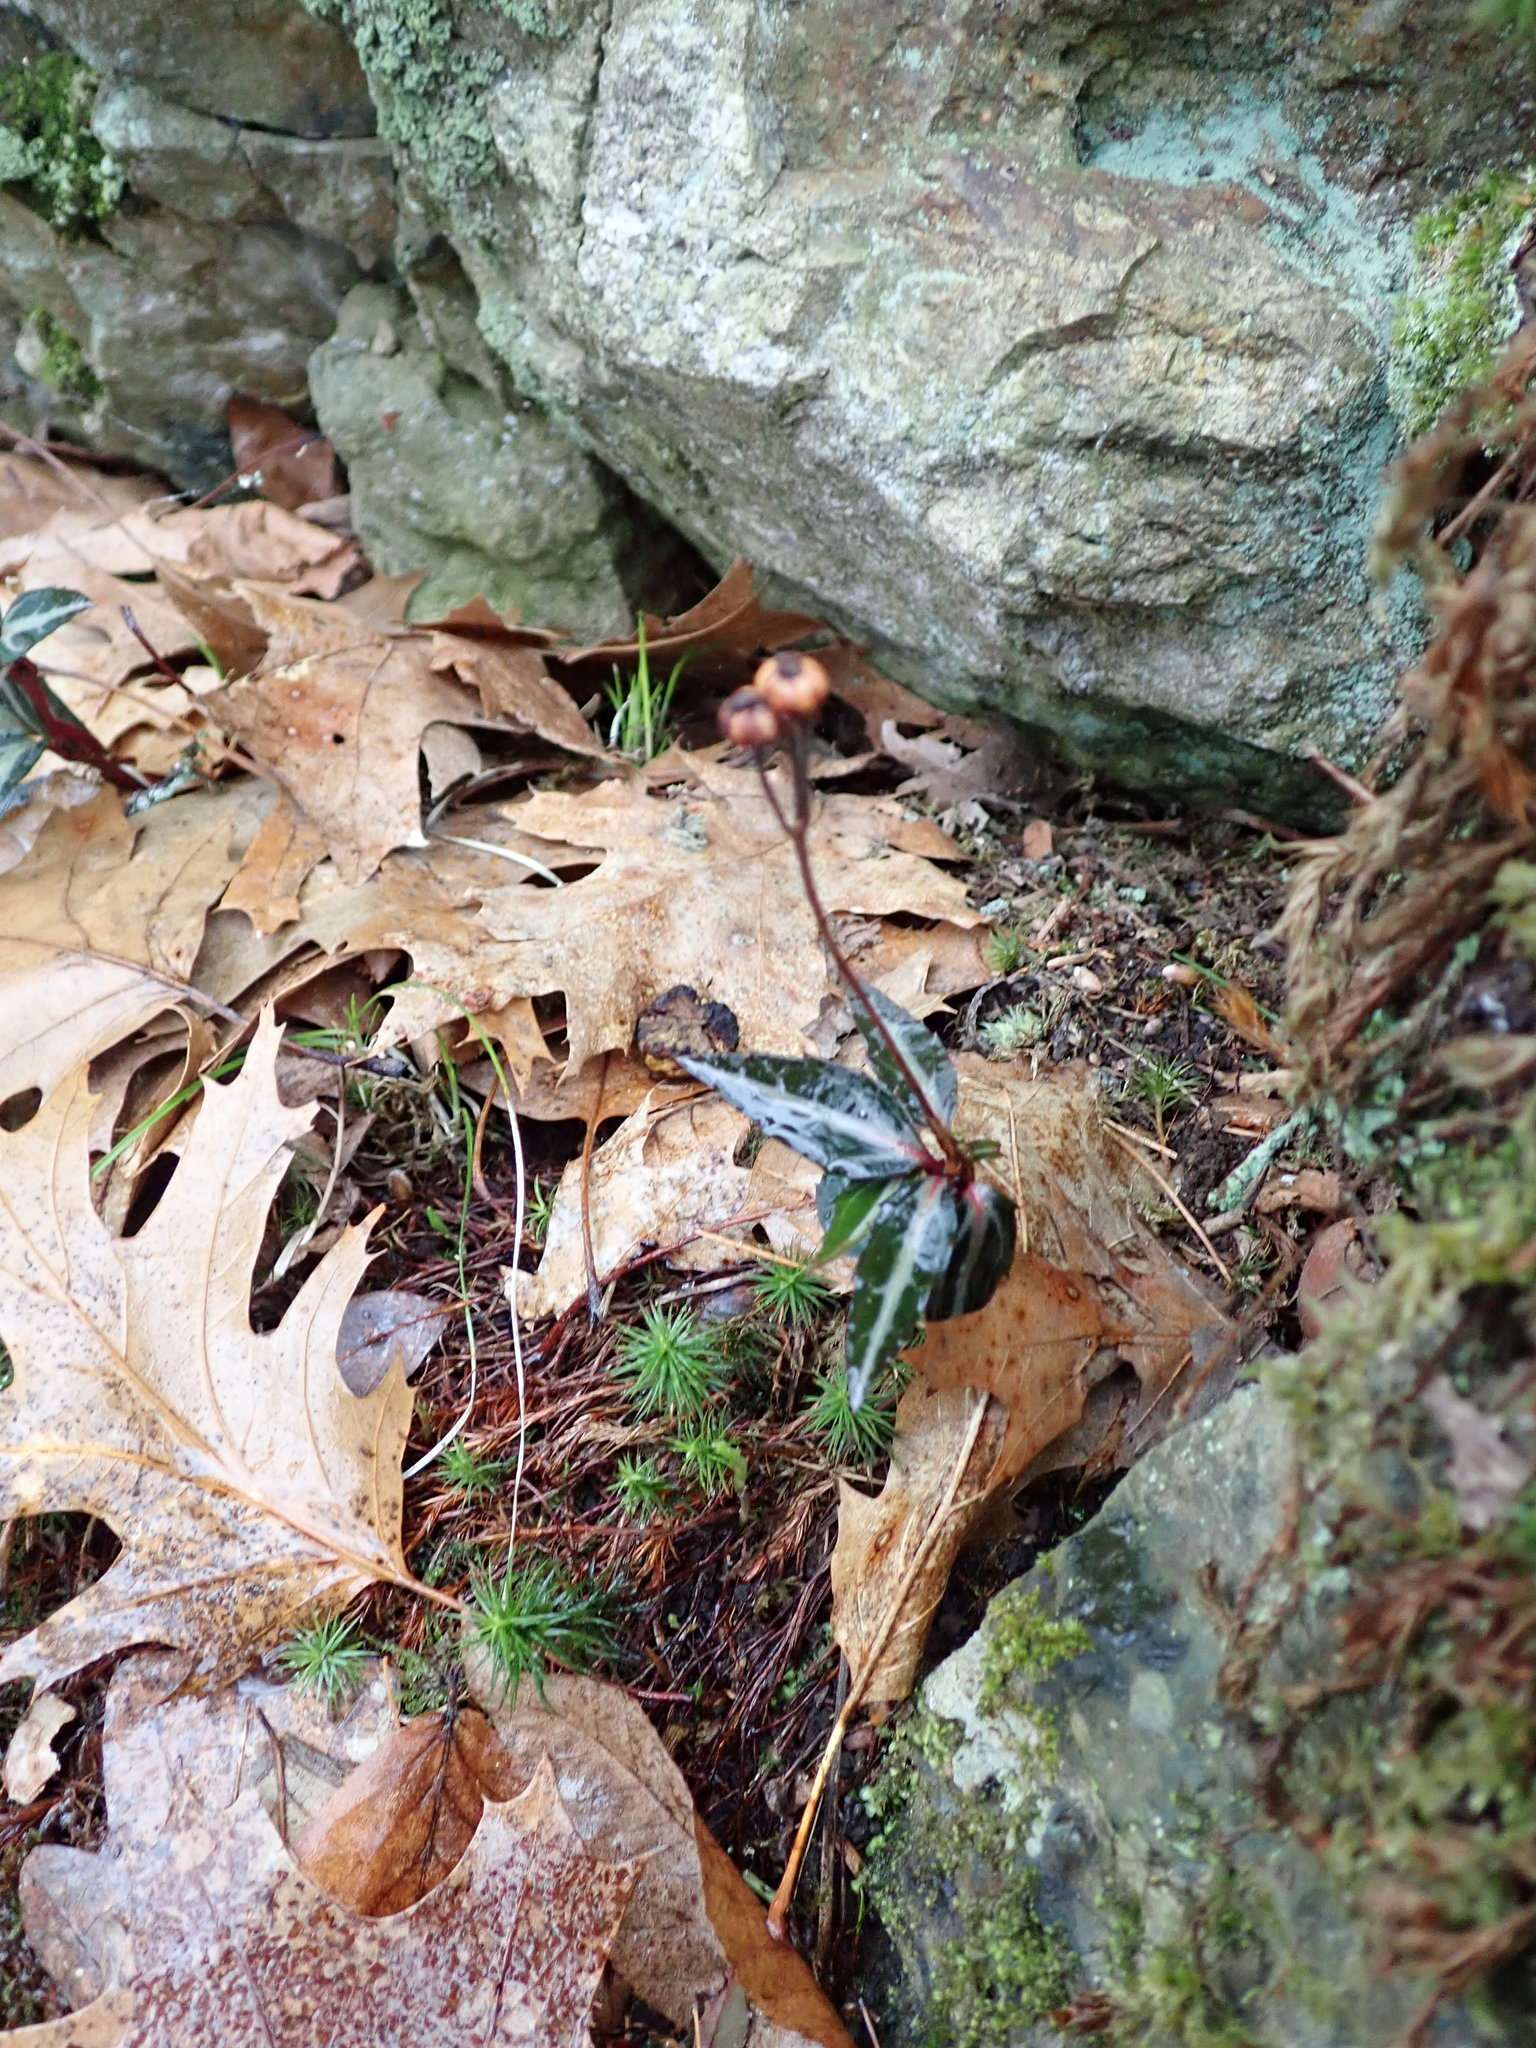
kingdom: Plantae
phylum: Tracheophyta
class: Magnoliopsida
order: Ericales
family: Ericaceae
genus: Chimaphila
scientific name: Chimaphila maculata
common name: Spotted pipsissewa
